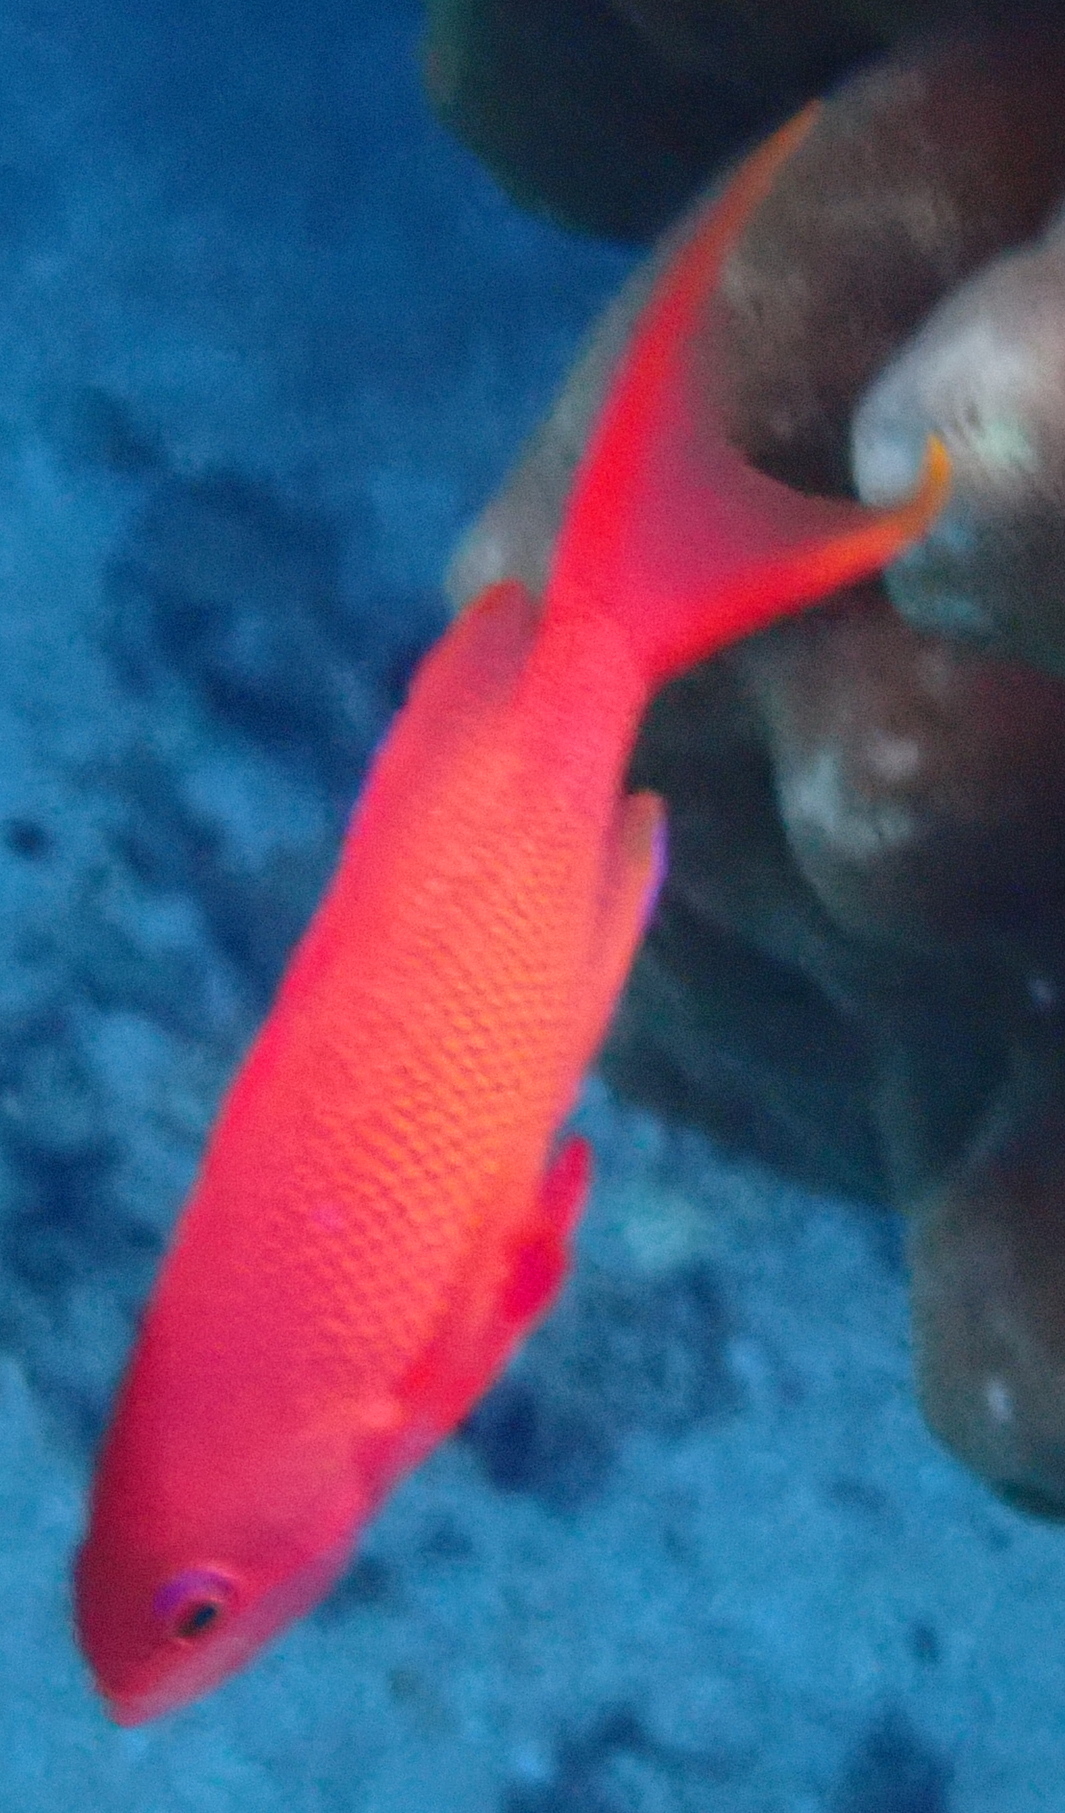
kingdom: Animalia
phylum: Chordata
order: Perciformes
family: Serranidae
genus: Pseudanthias
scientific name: Pseudanthias squamipinnis
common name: Scalefin anthias
